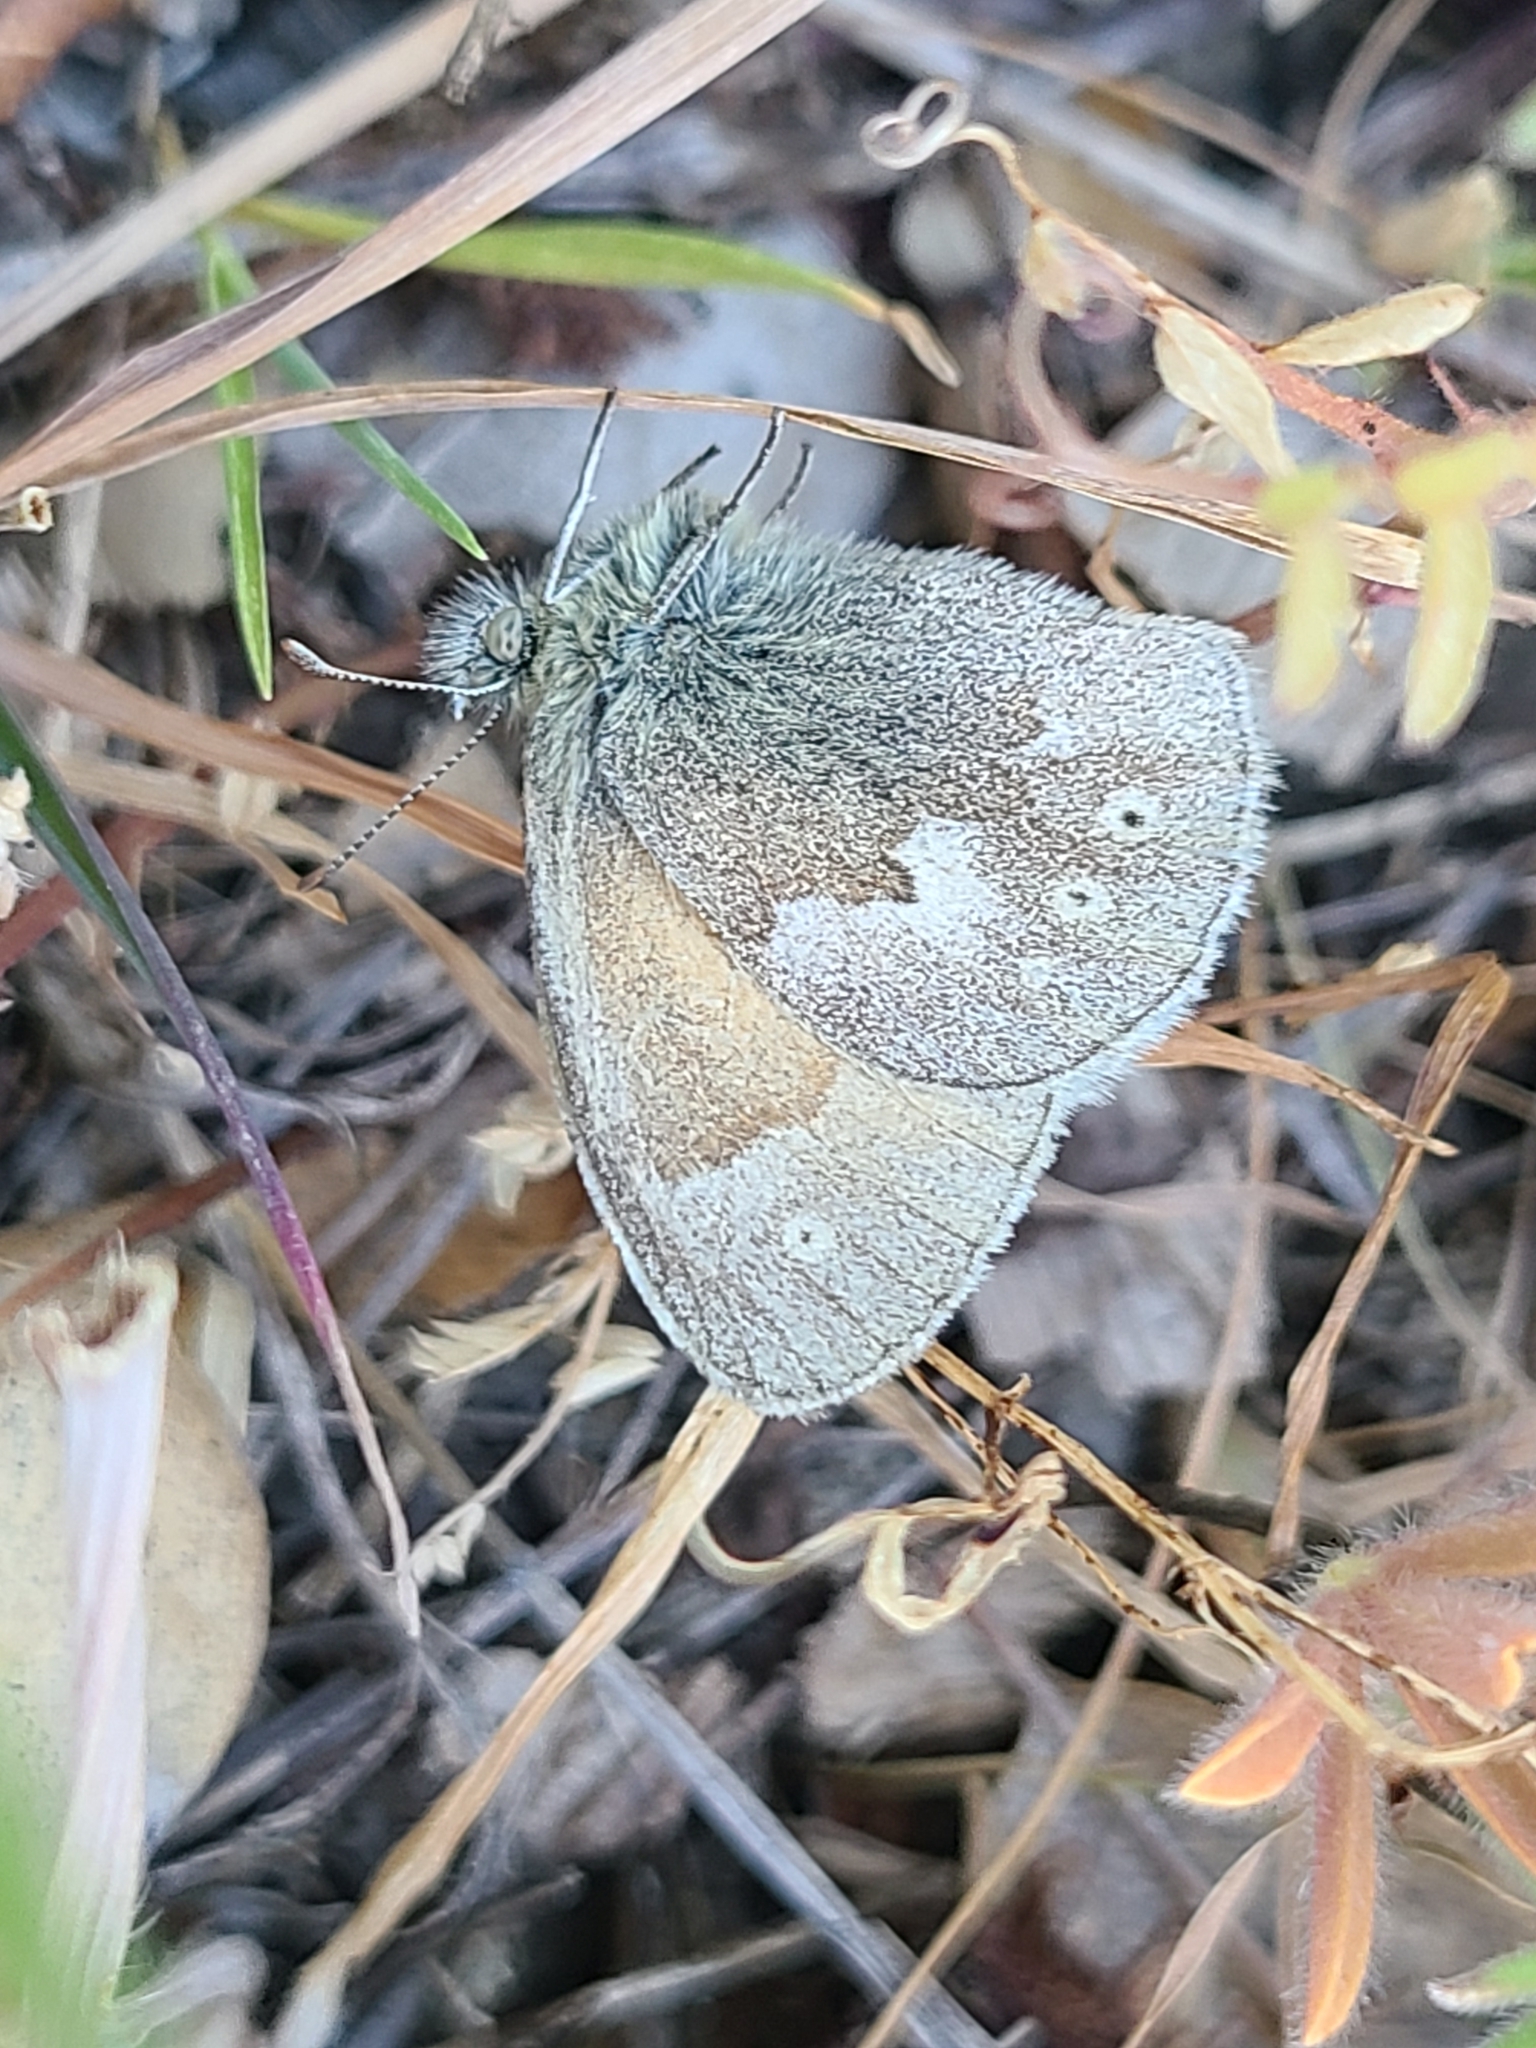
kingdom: Animalia
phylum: Arthropoda
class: Insecta
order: Lepidoptera
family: Nymphalidae
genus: Coenonympha
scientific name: Coenonympha california
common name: Common ringlet
